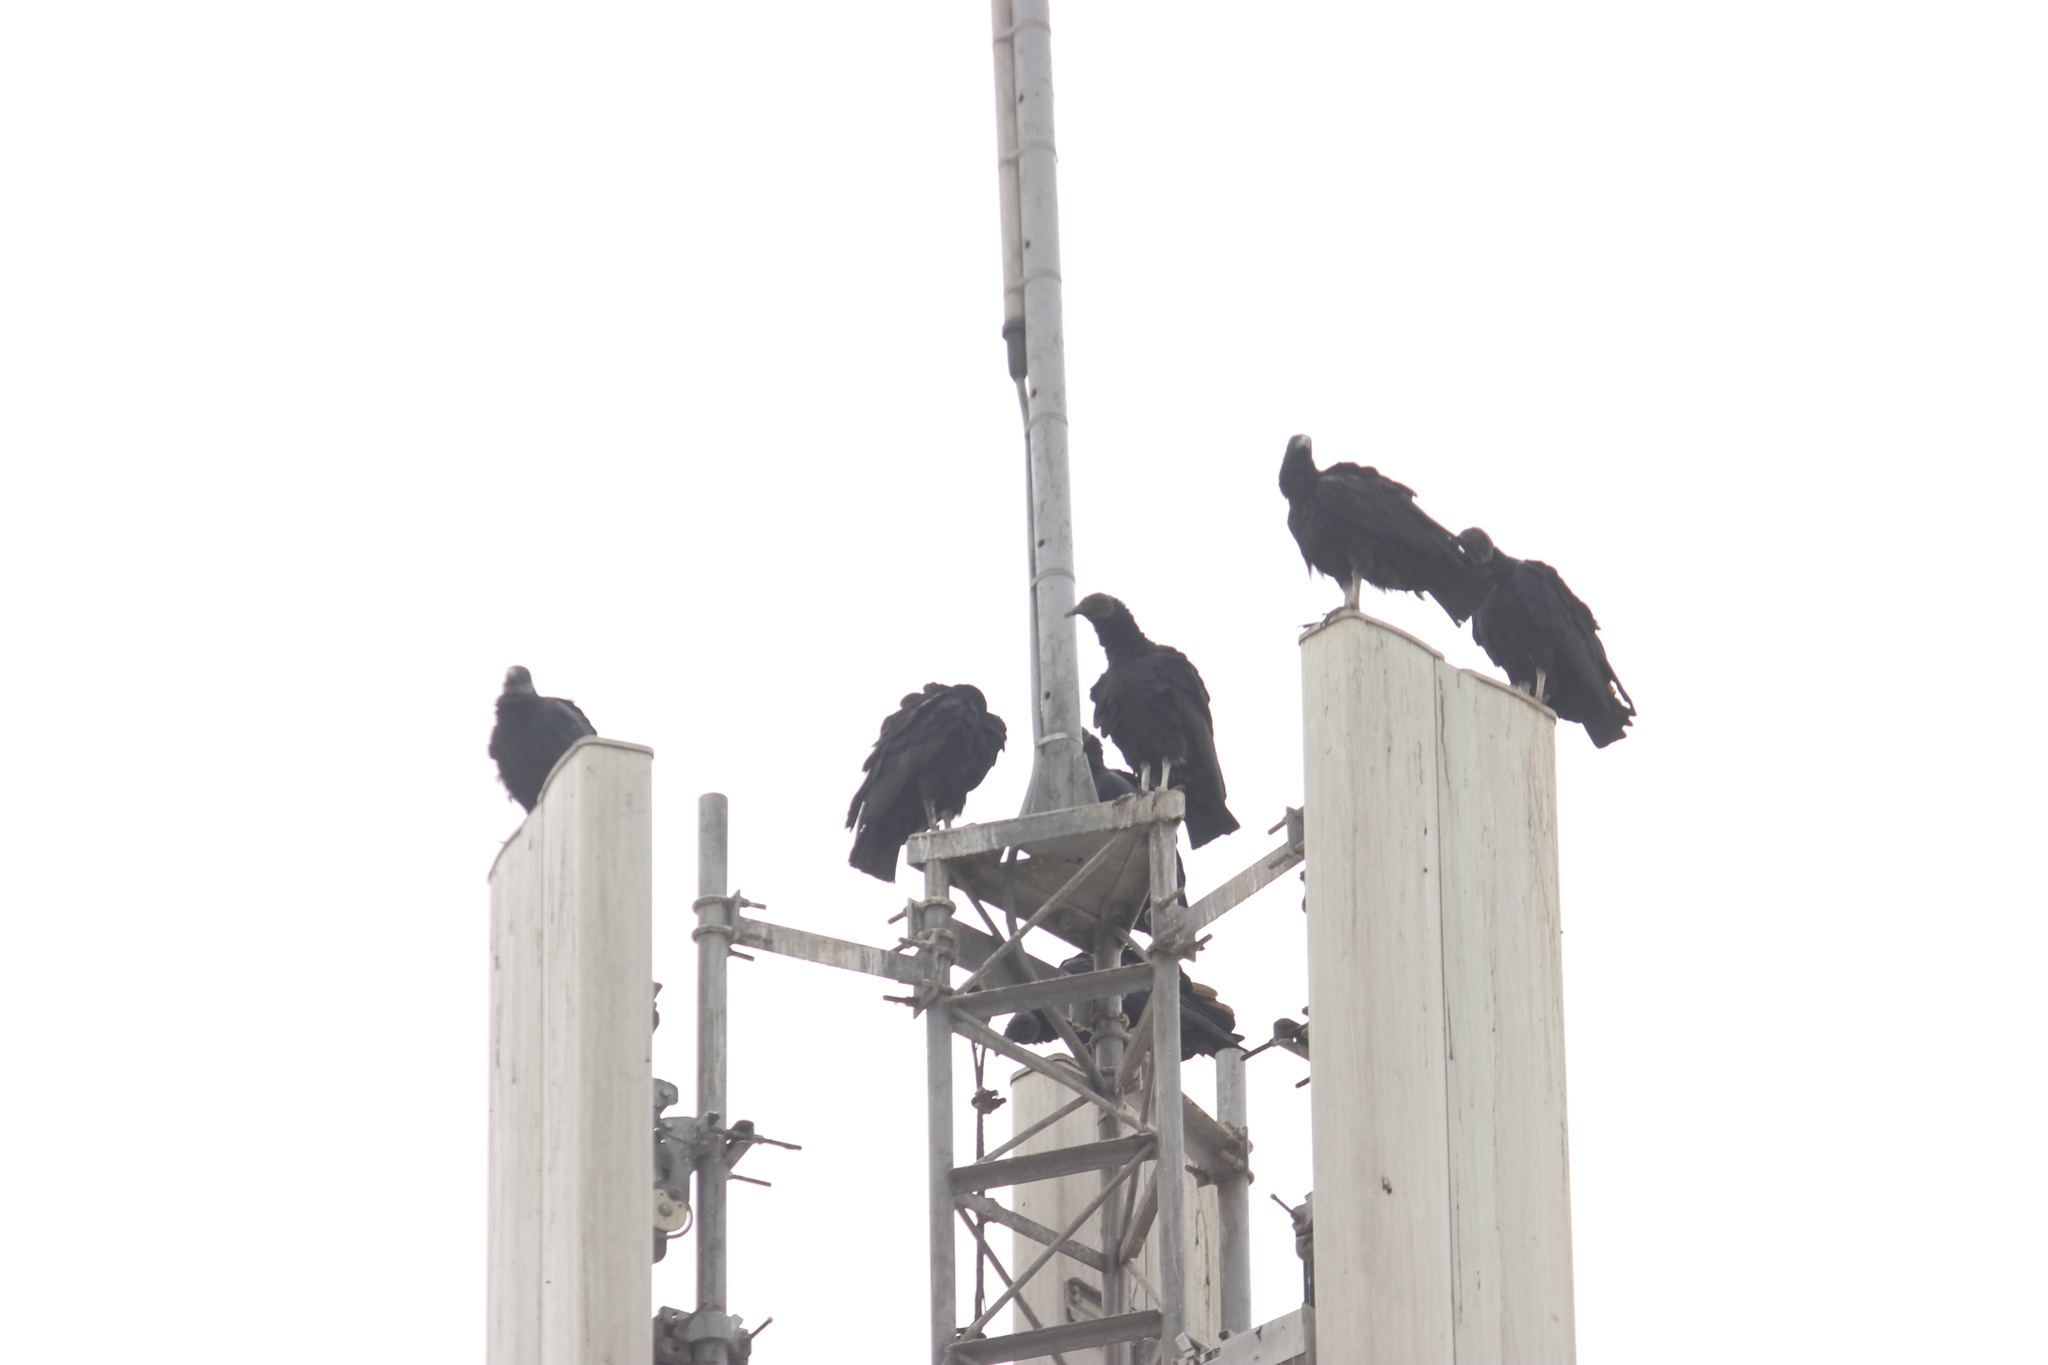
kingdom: Animalia
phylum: Chordata
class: Aves
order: Accipitriformes
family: Cathartidae
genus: Coragyps
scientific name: Coragyps atratus
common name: Black vulture
